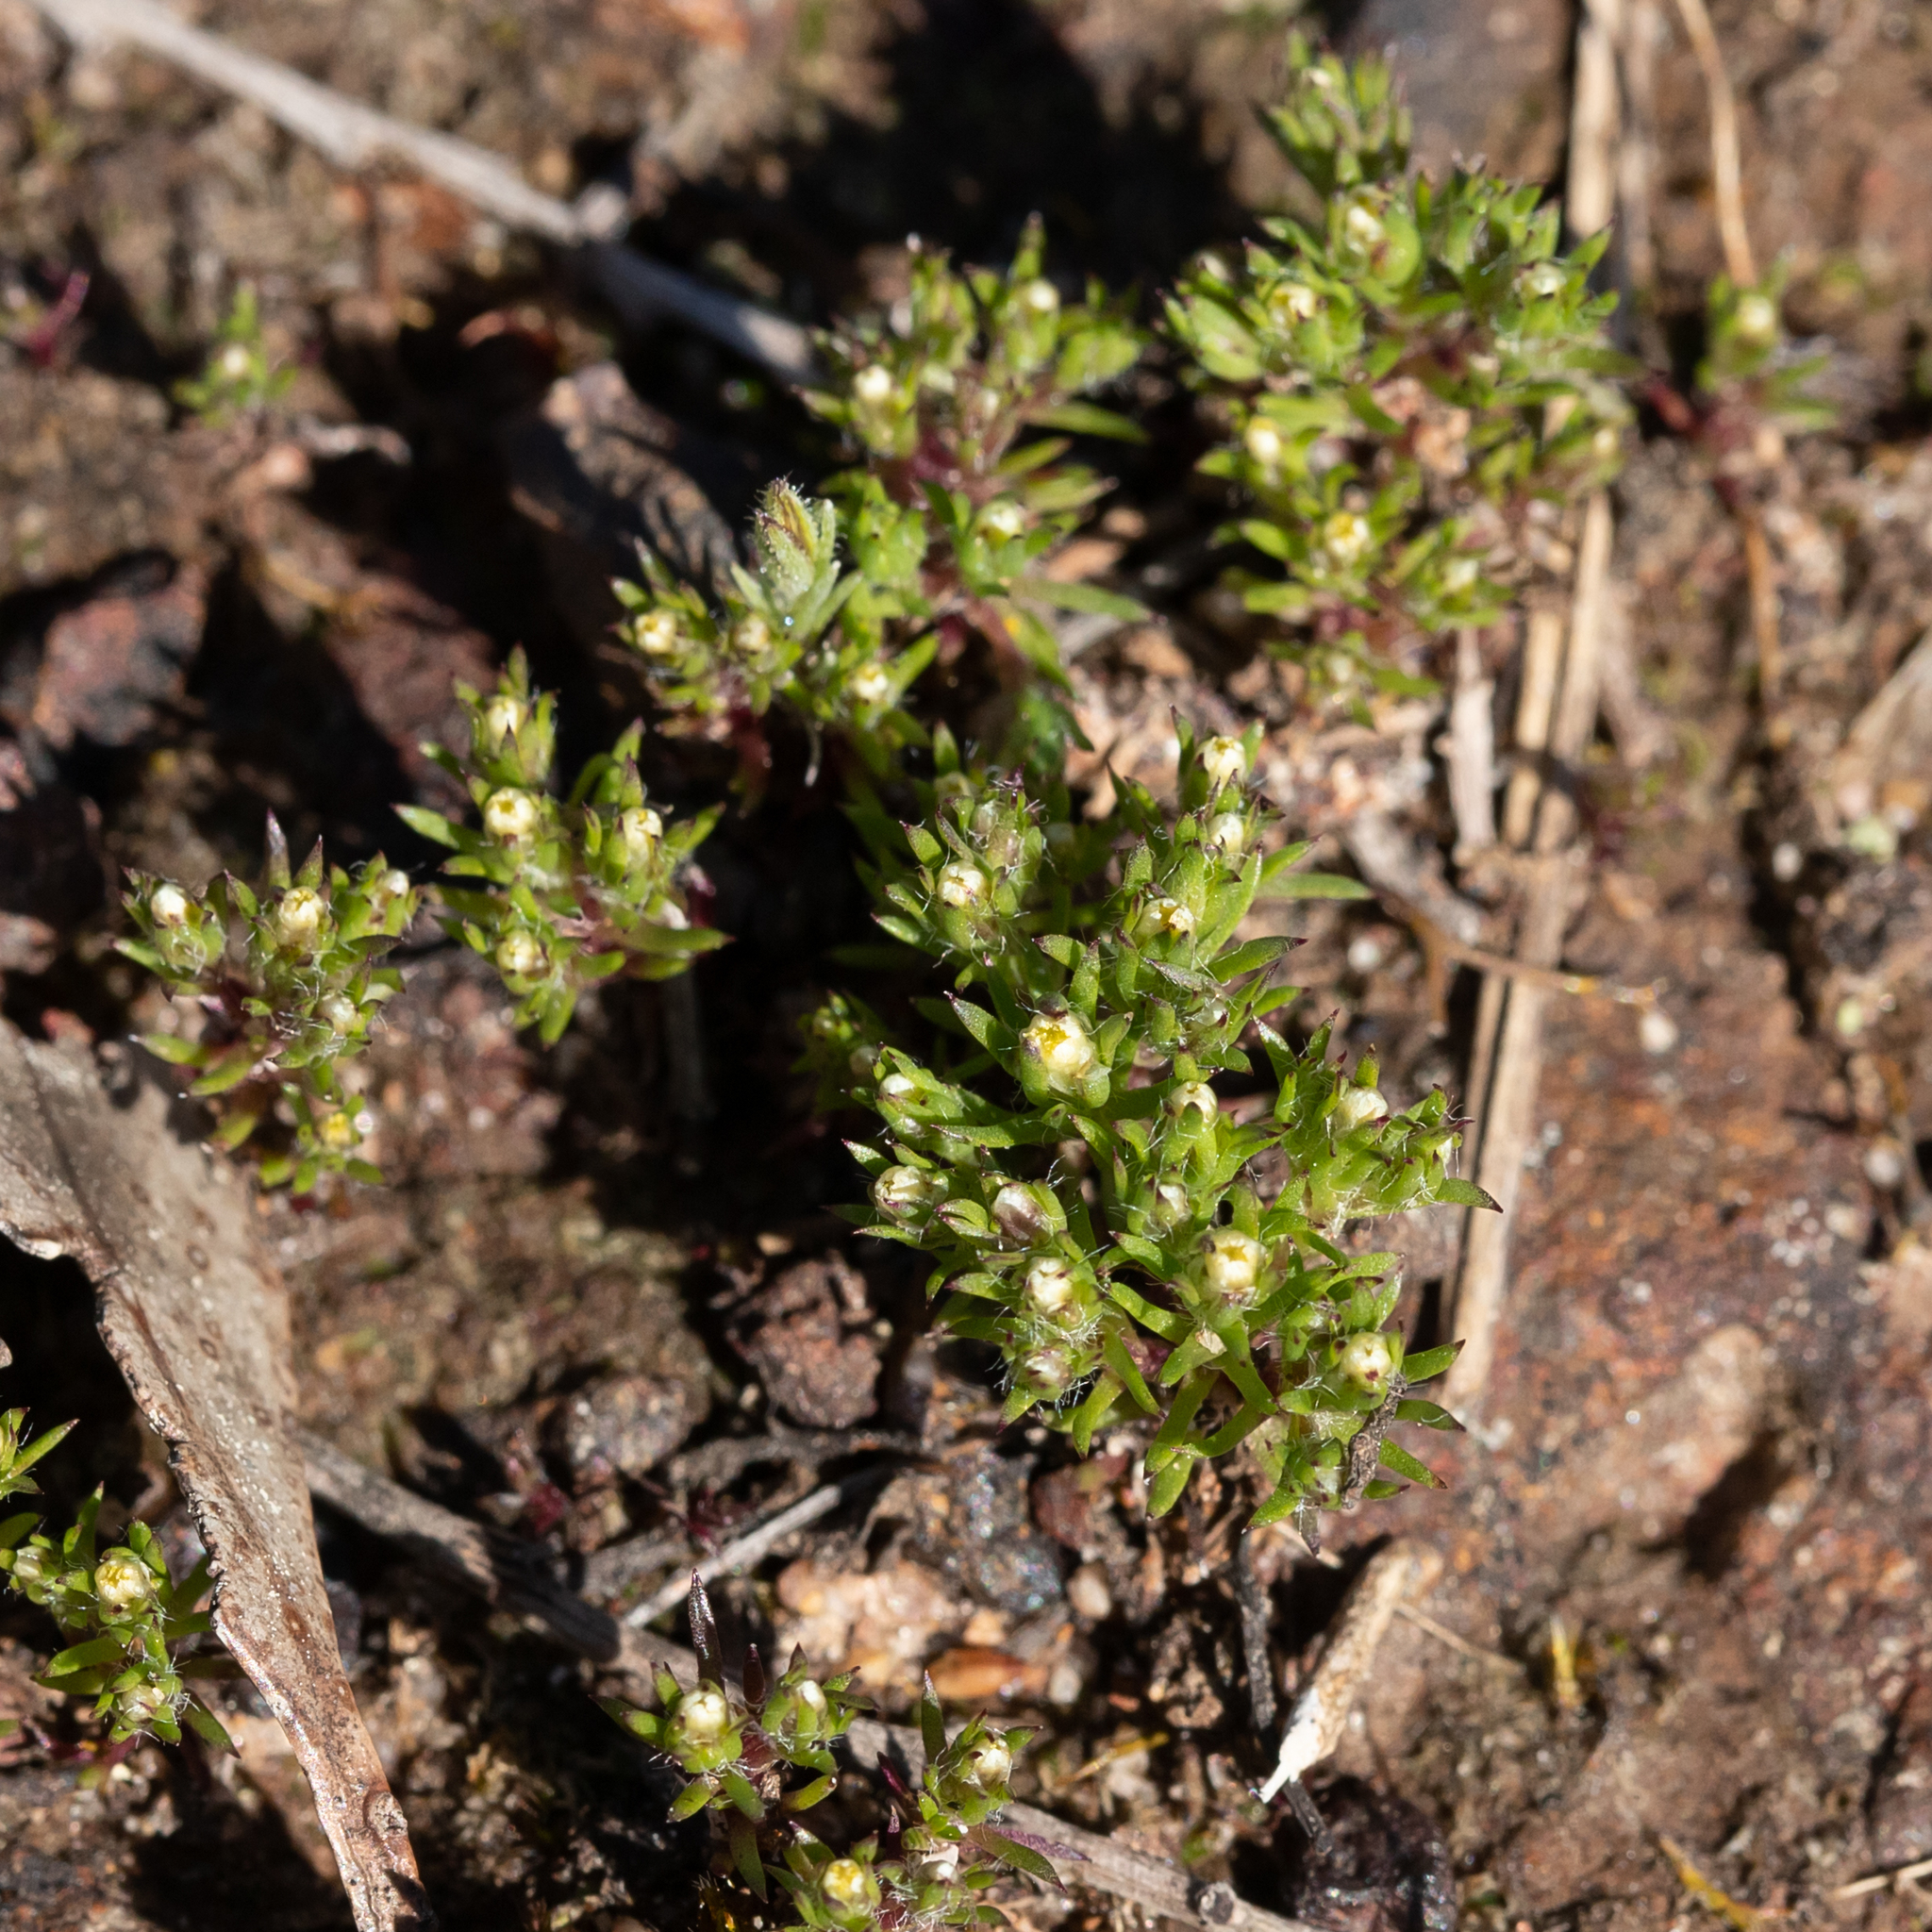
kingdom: Plantae
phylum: Tracheophyta
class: Magnoliopsida
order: Asterales
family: Asteraceae
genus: Hyalosperma
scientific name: Hyalosperma demissum
